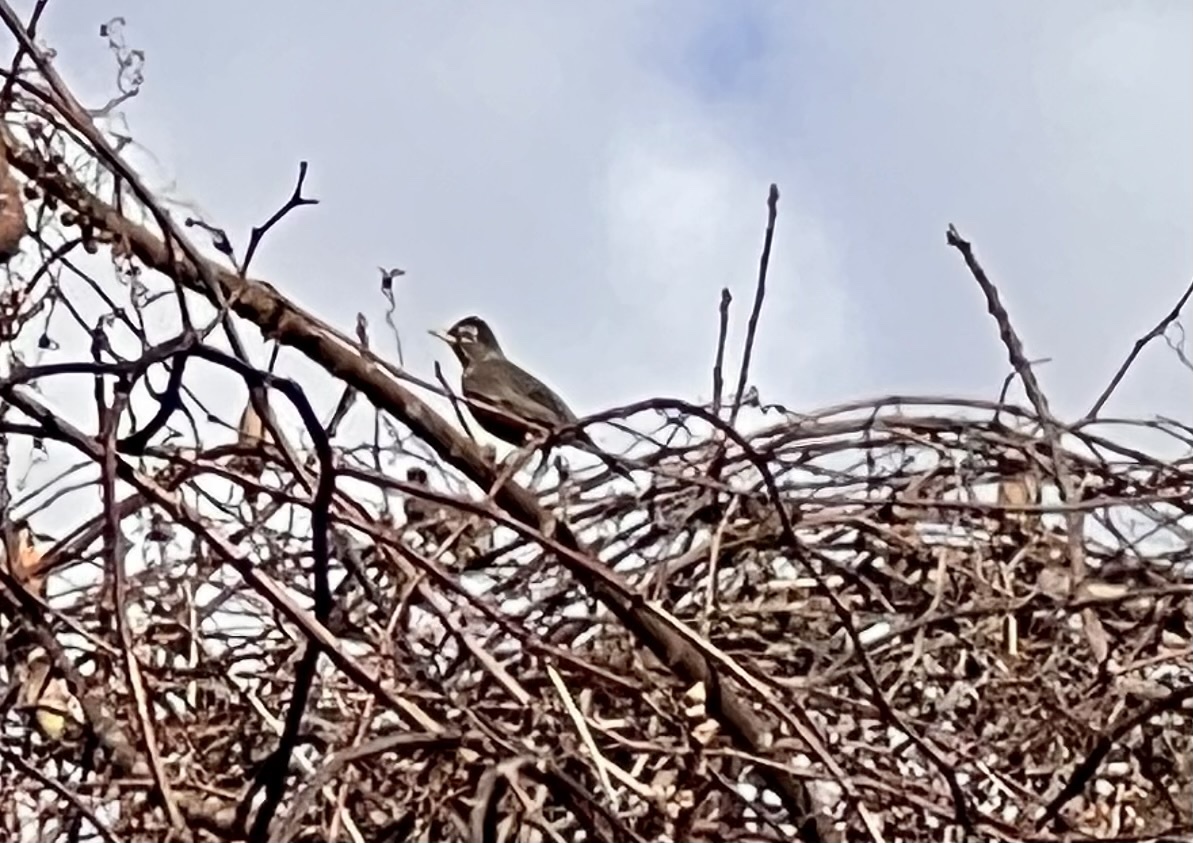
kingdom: Animalia
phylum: Chordata
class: Aves
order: Passeriformes
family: Turdidae
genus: Turdus
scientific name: Turdus migratorius
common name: American robin
